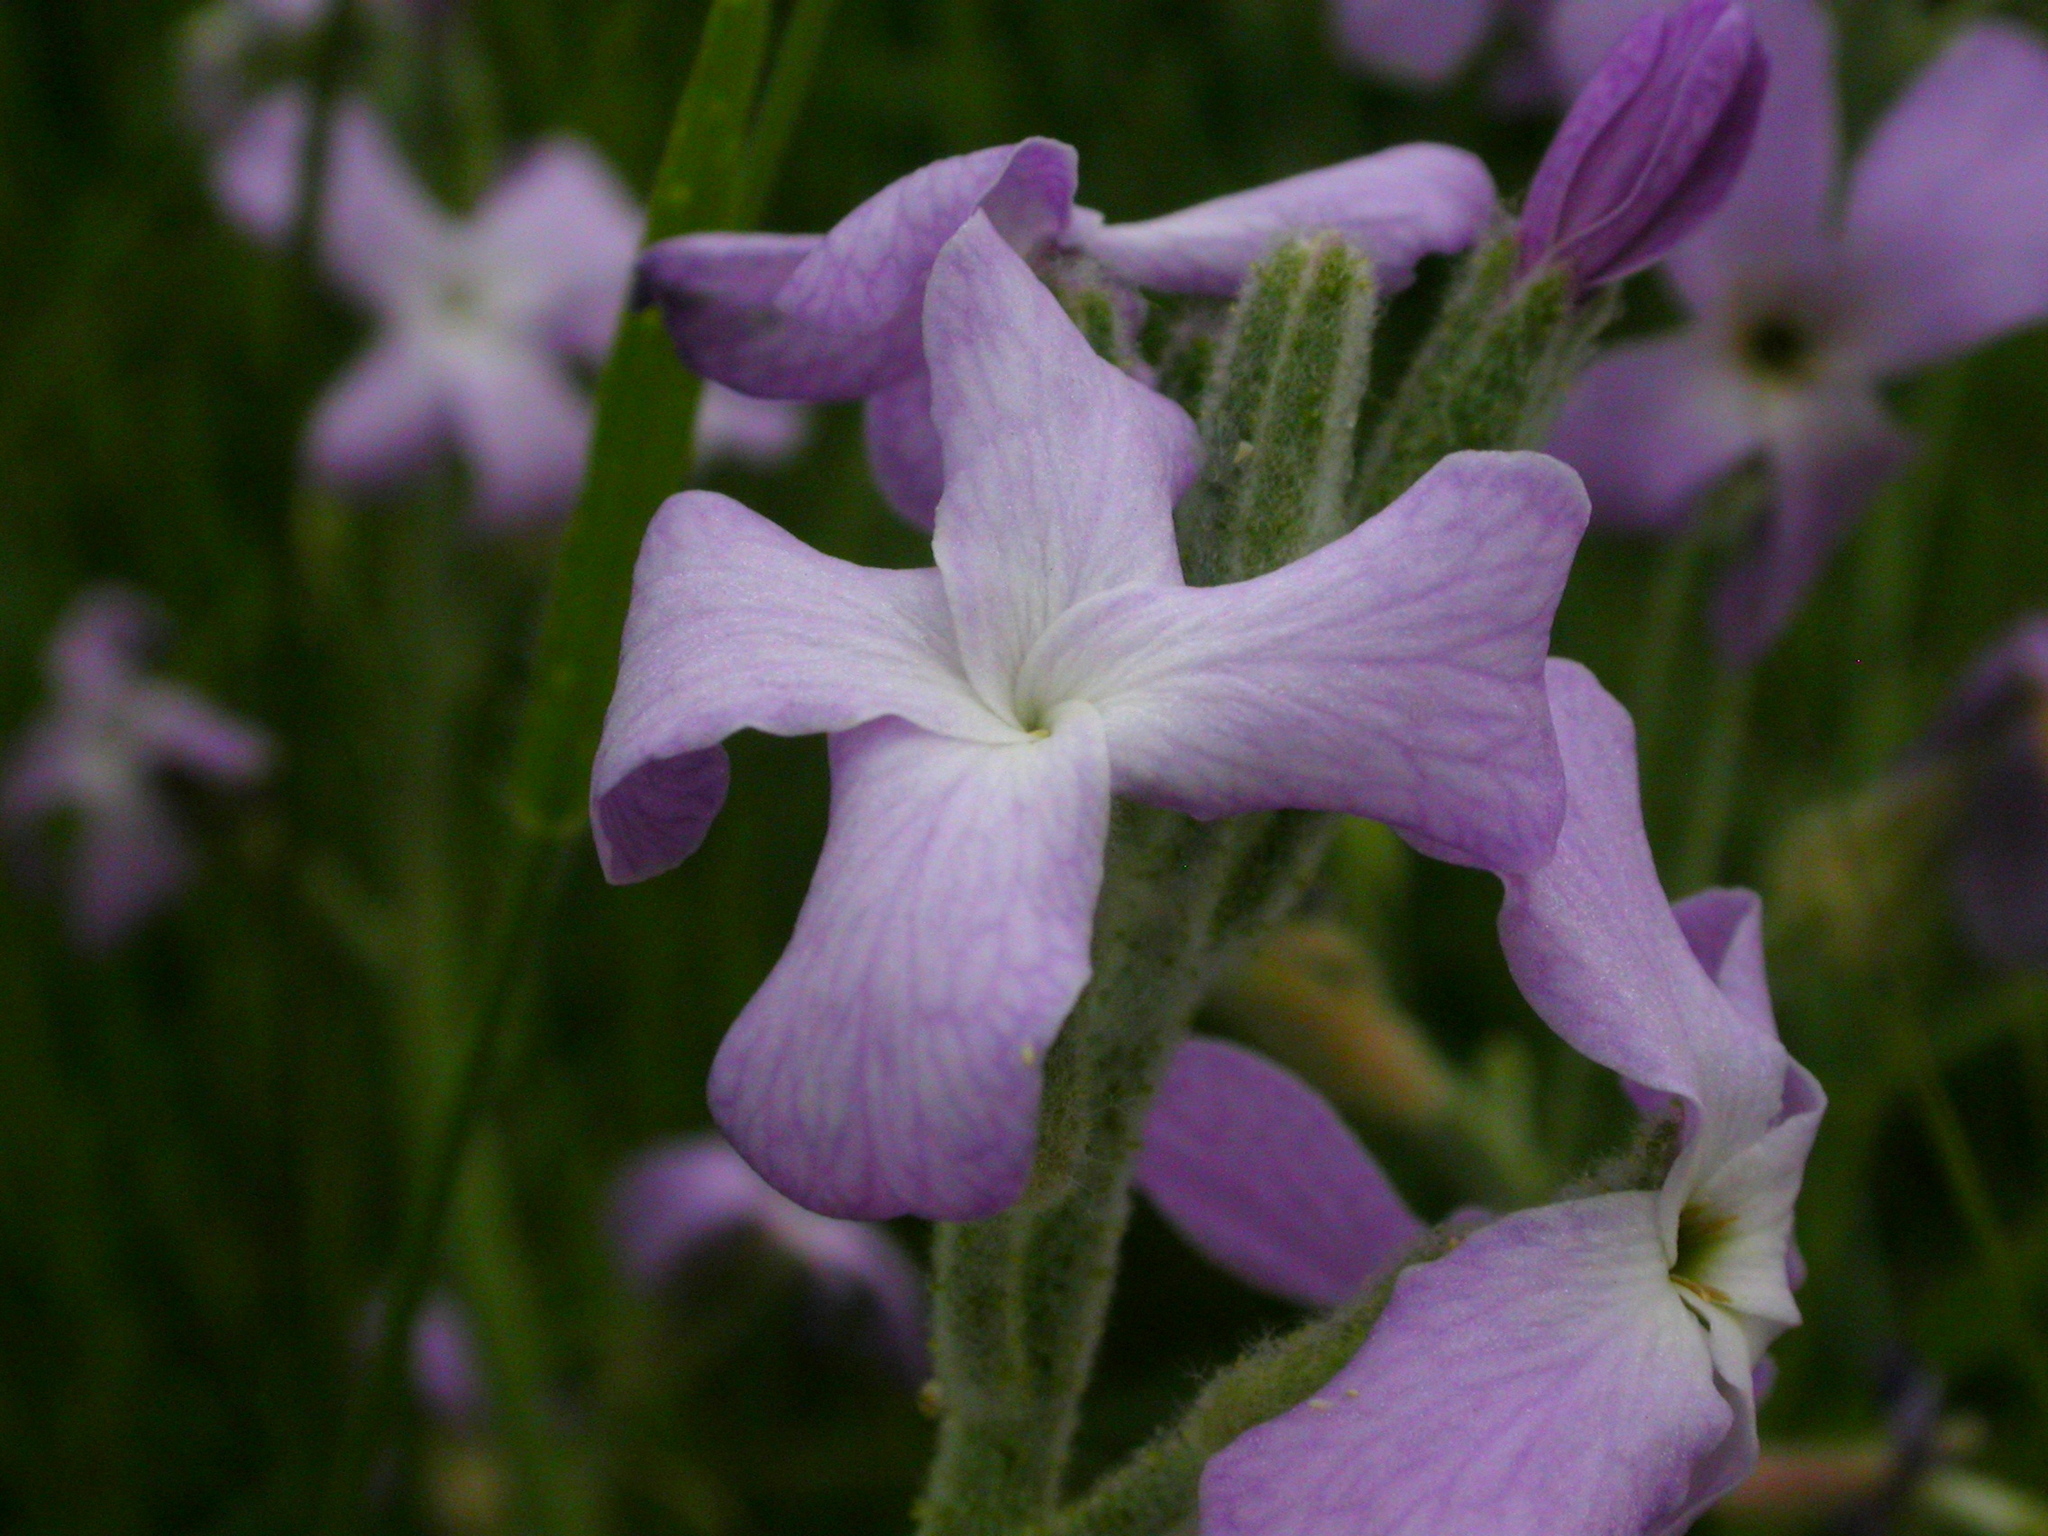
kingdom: Plantae
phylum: Tracheophyta
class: Magnoliopsida
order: Brassicales
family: Brassicaceae
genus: Matthiola
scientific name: Matthiola sinuata
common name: Sea stock
